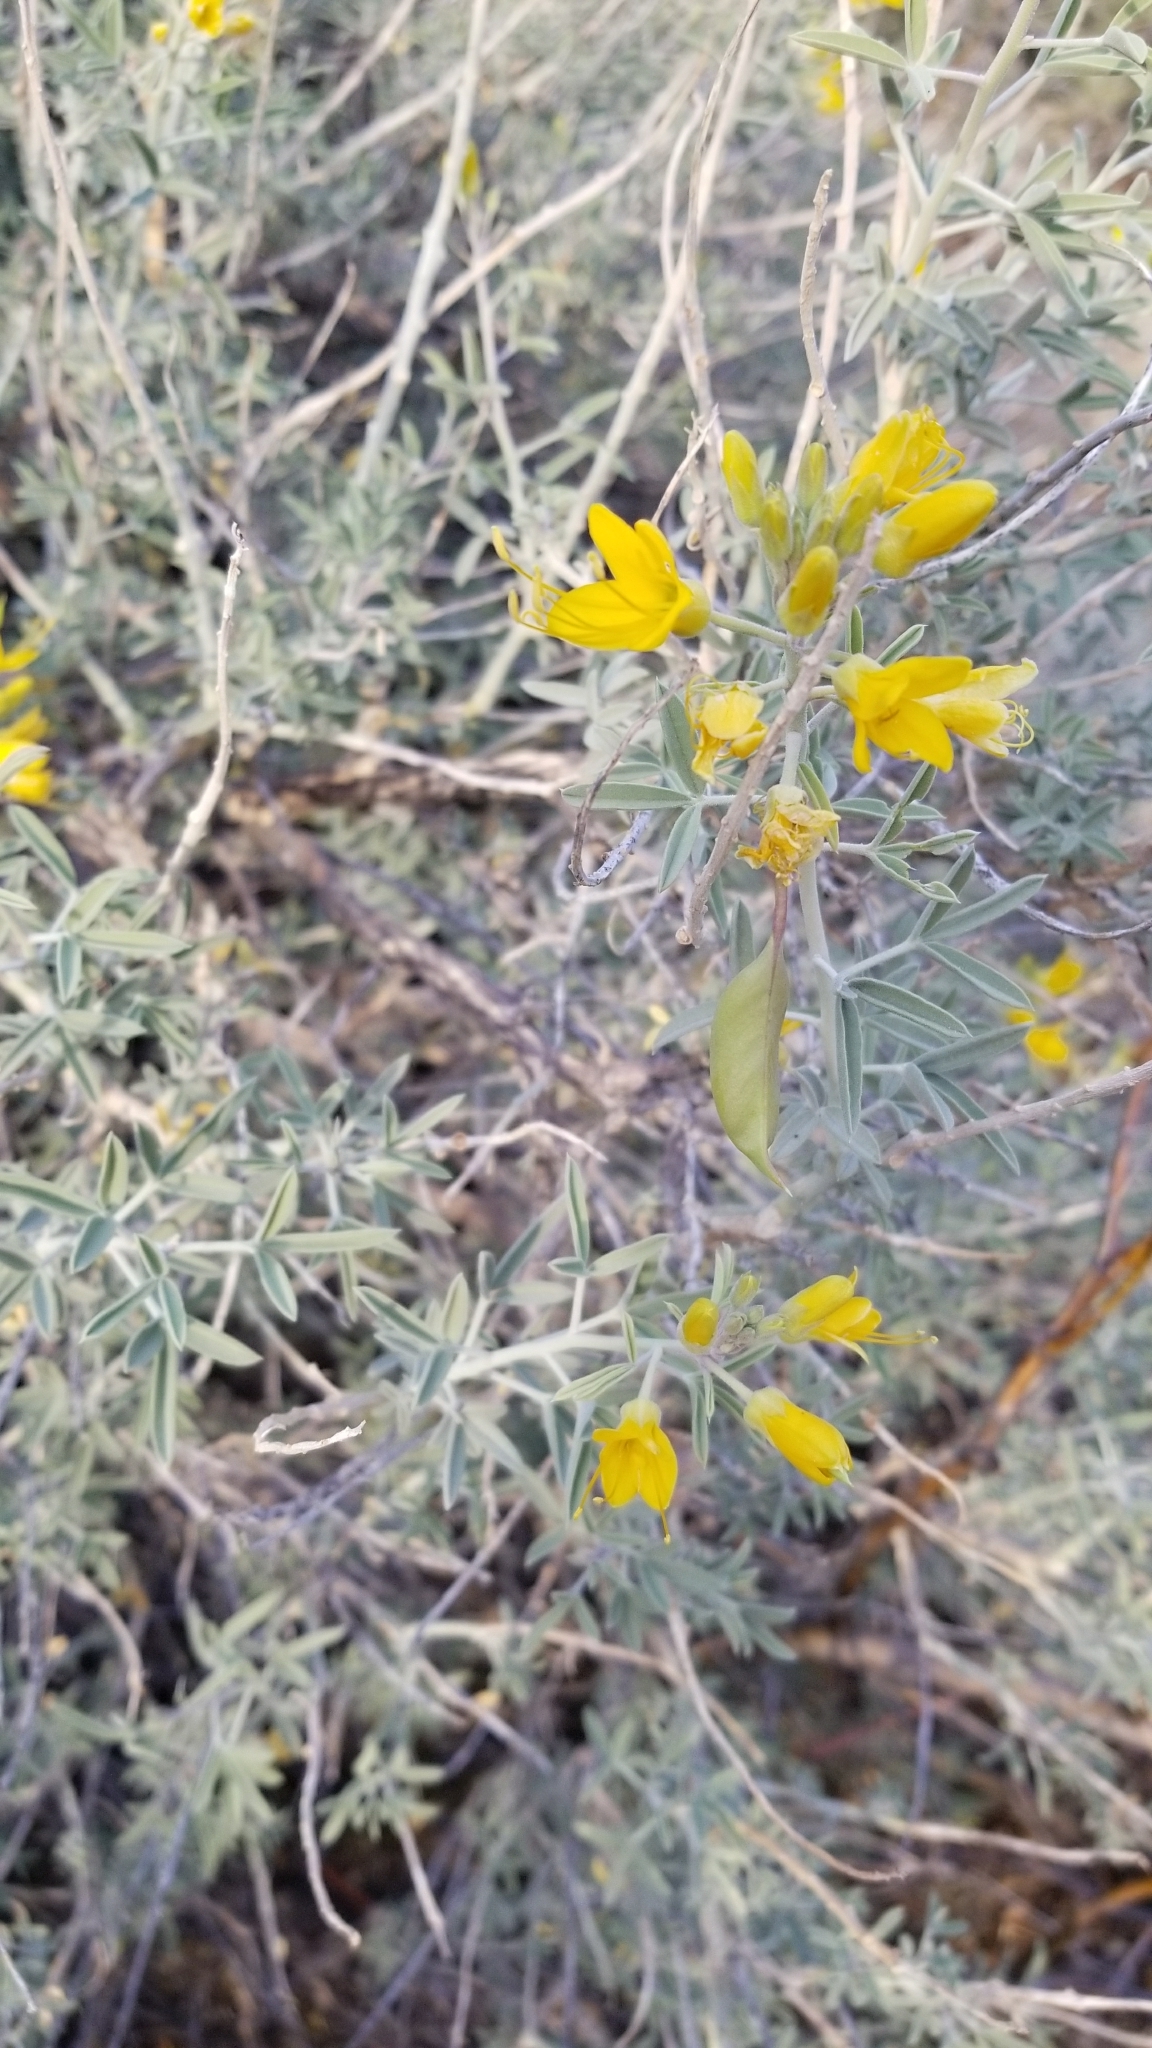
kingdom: Plantae
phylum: Tracheophyta
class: Magnoliopsida
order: Brassicales
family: Cleomaceae
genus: Cleomella
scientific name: Cleomella arborea
